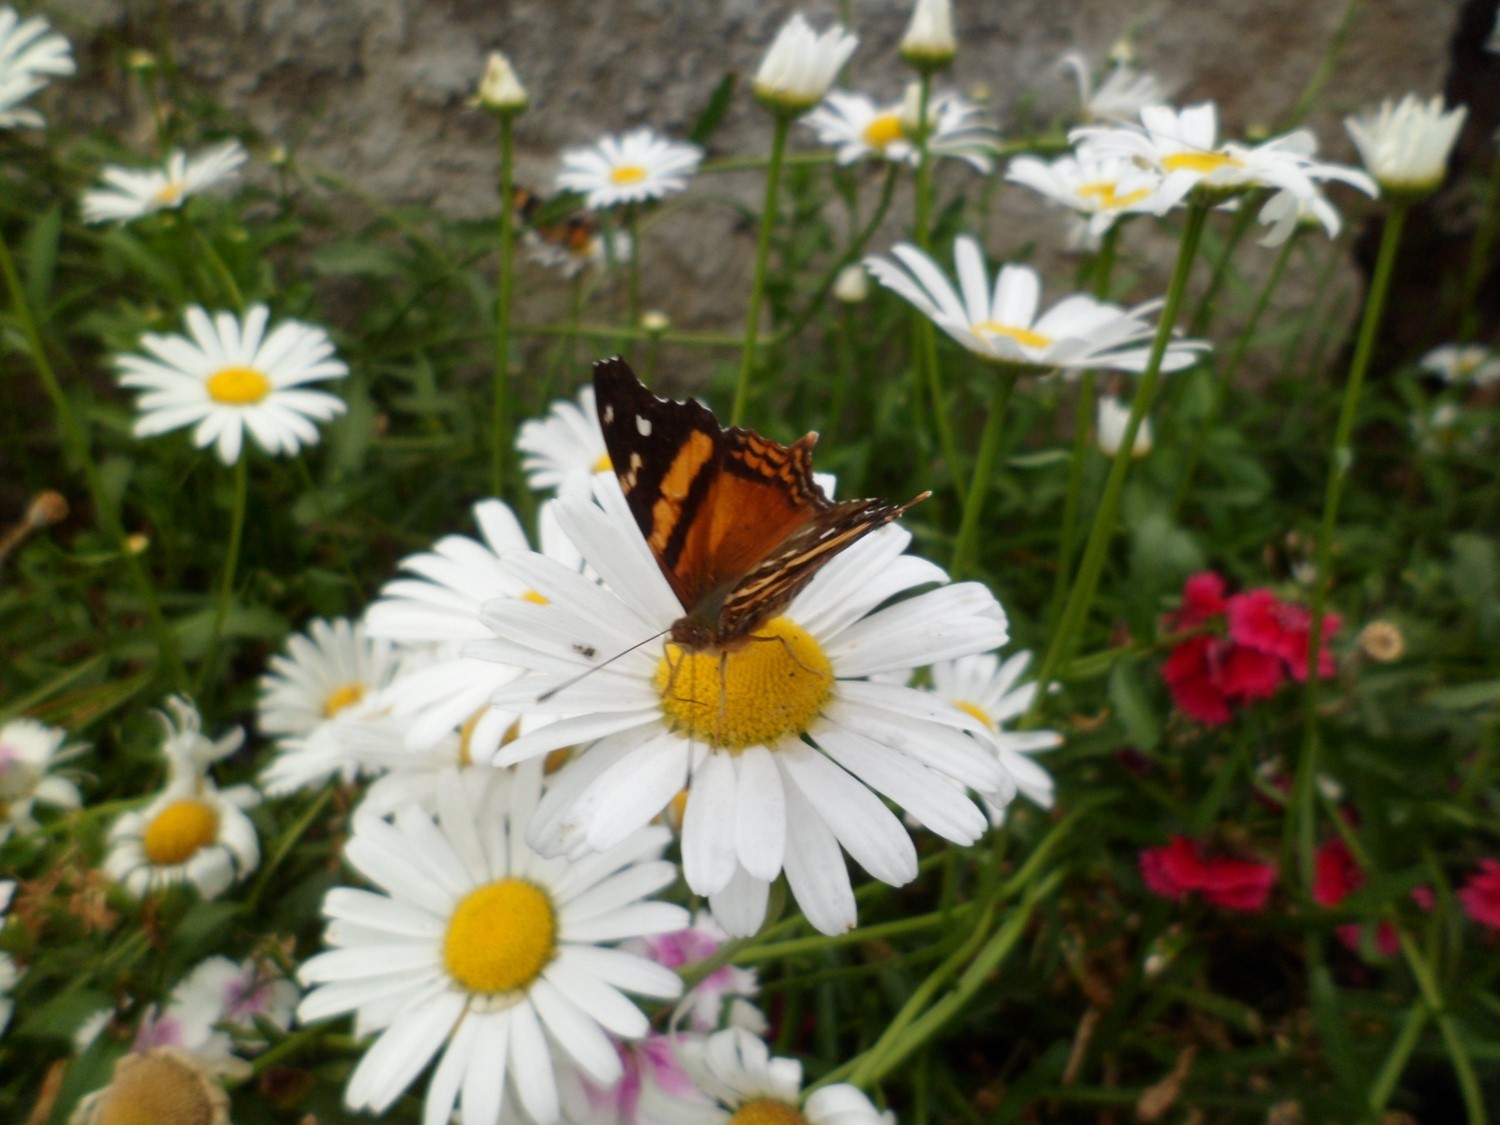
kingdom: Animalia
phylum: Arthropoda
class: Insecta
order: Lepidoptera
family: Nymphalidae
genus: Hypanartia
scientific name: Hypanartia bella
